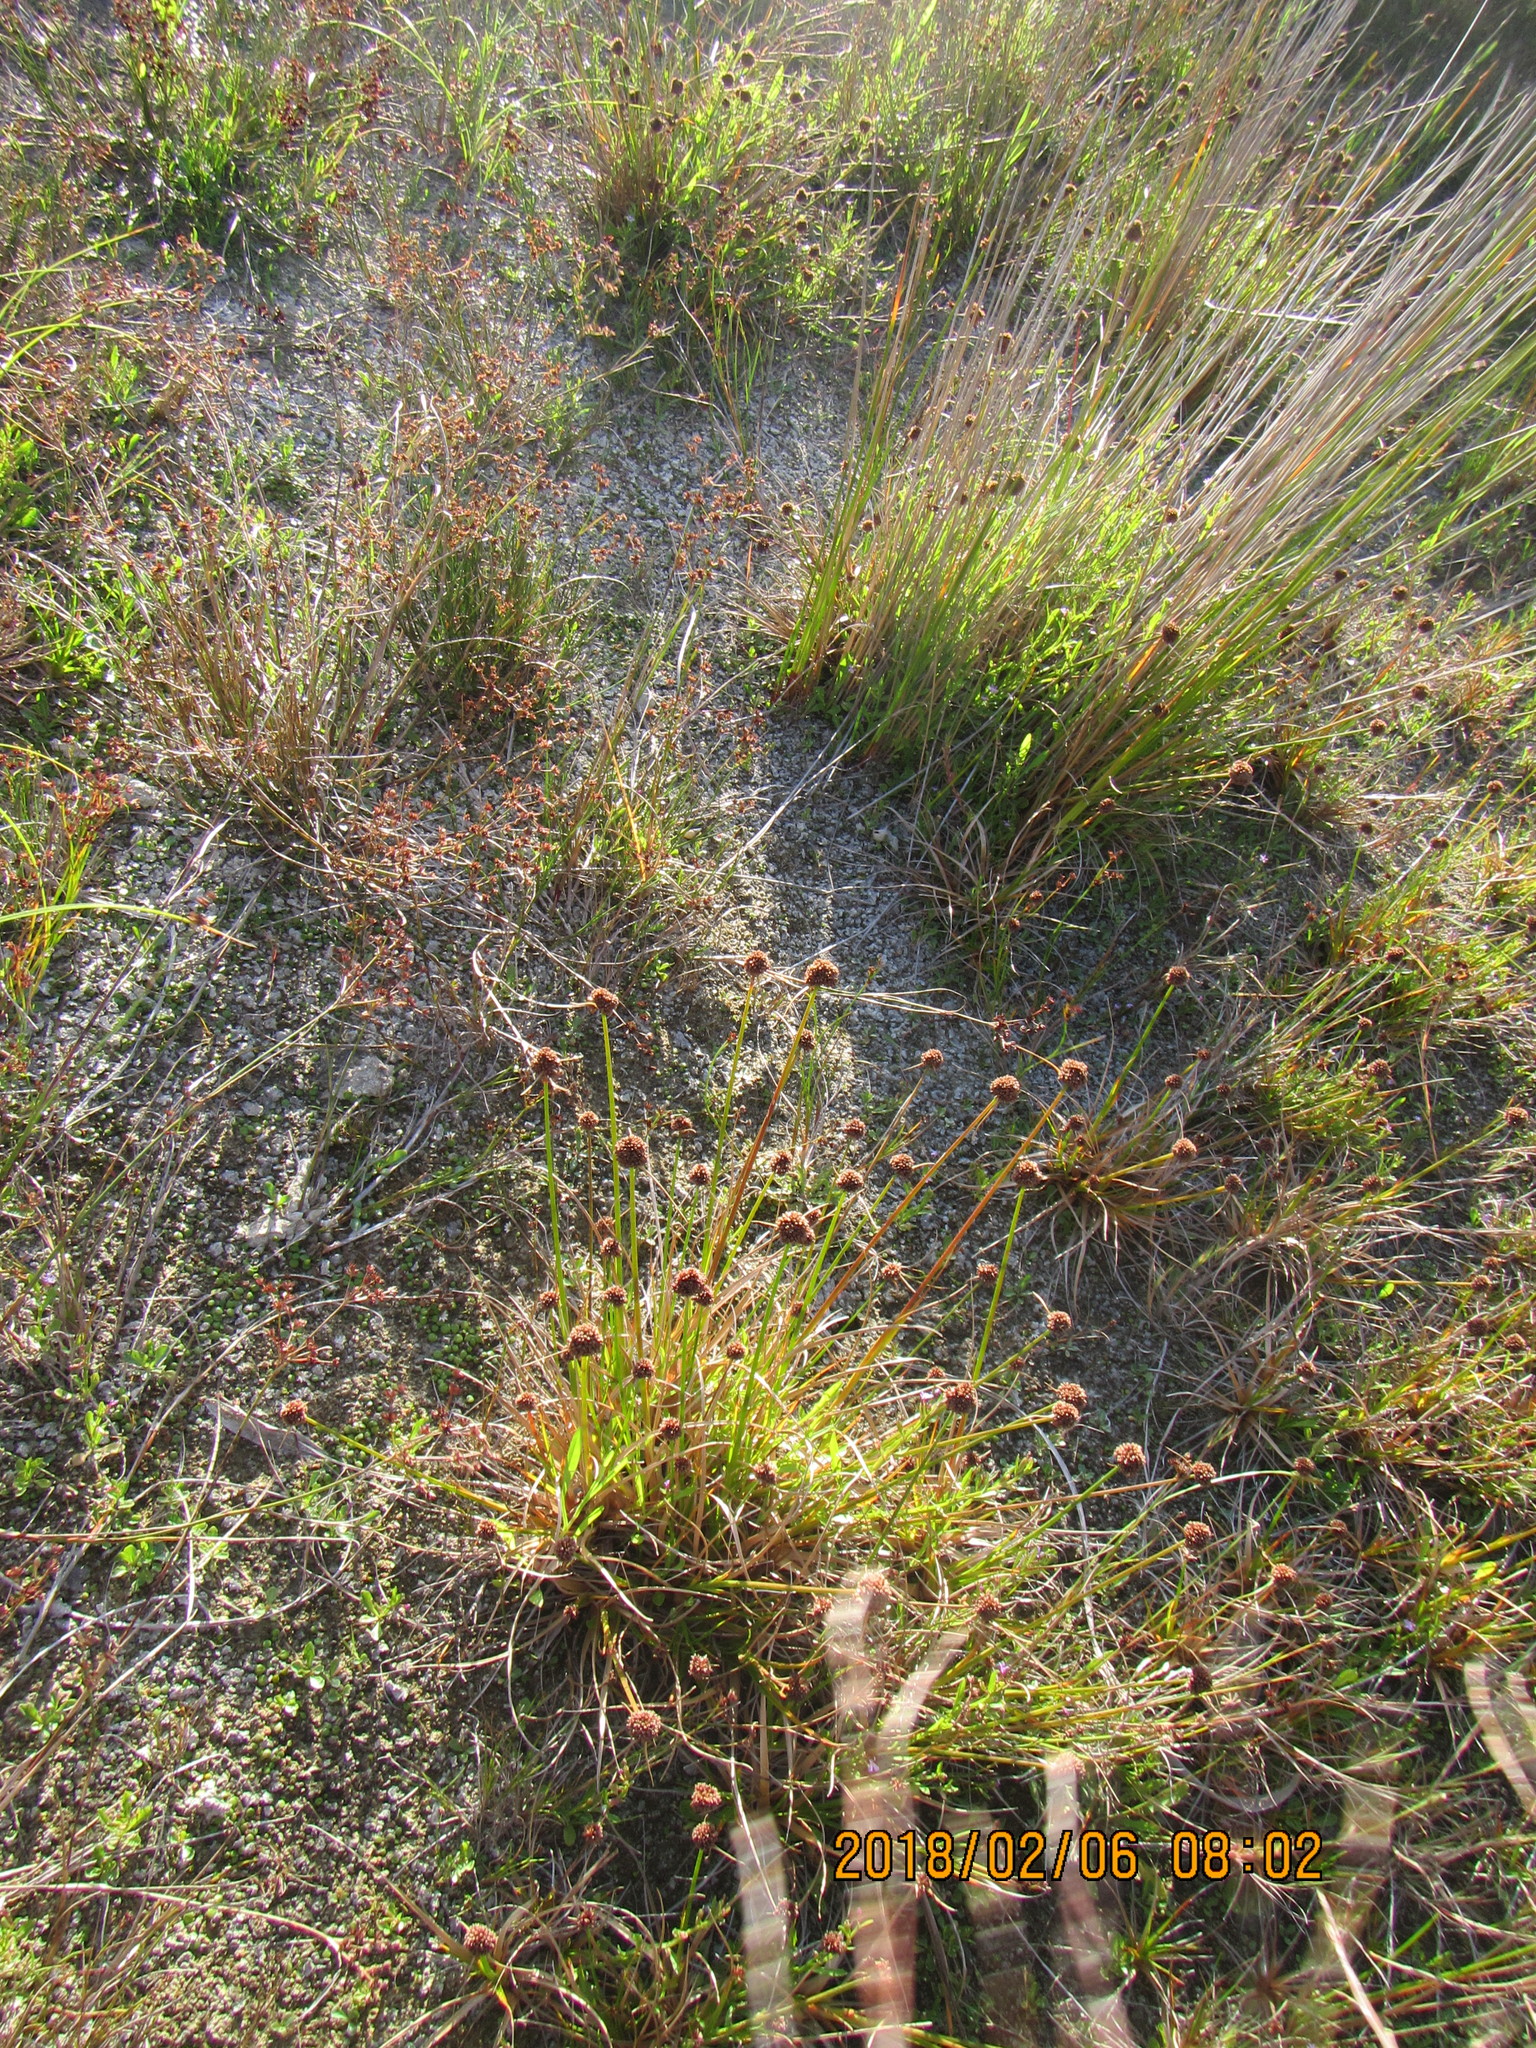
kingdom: Plantae
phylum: Tracheophyta
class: Liliopsida
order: Poales
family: Juncaceae
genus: Juncus
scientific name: Juncus caespiticius
